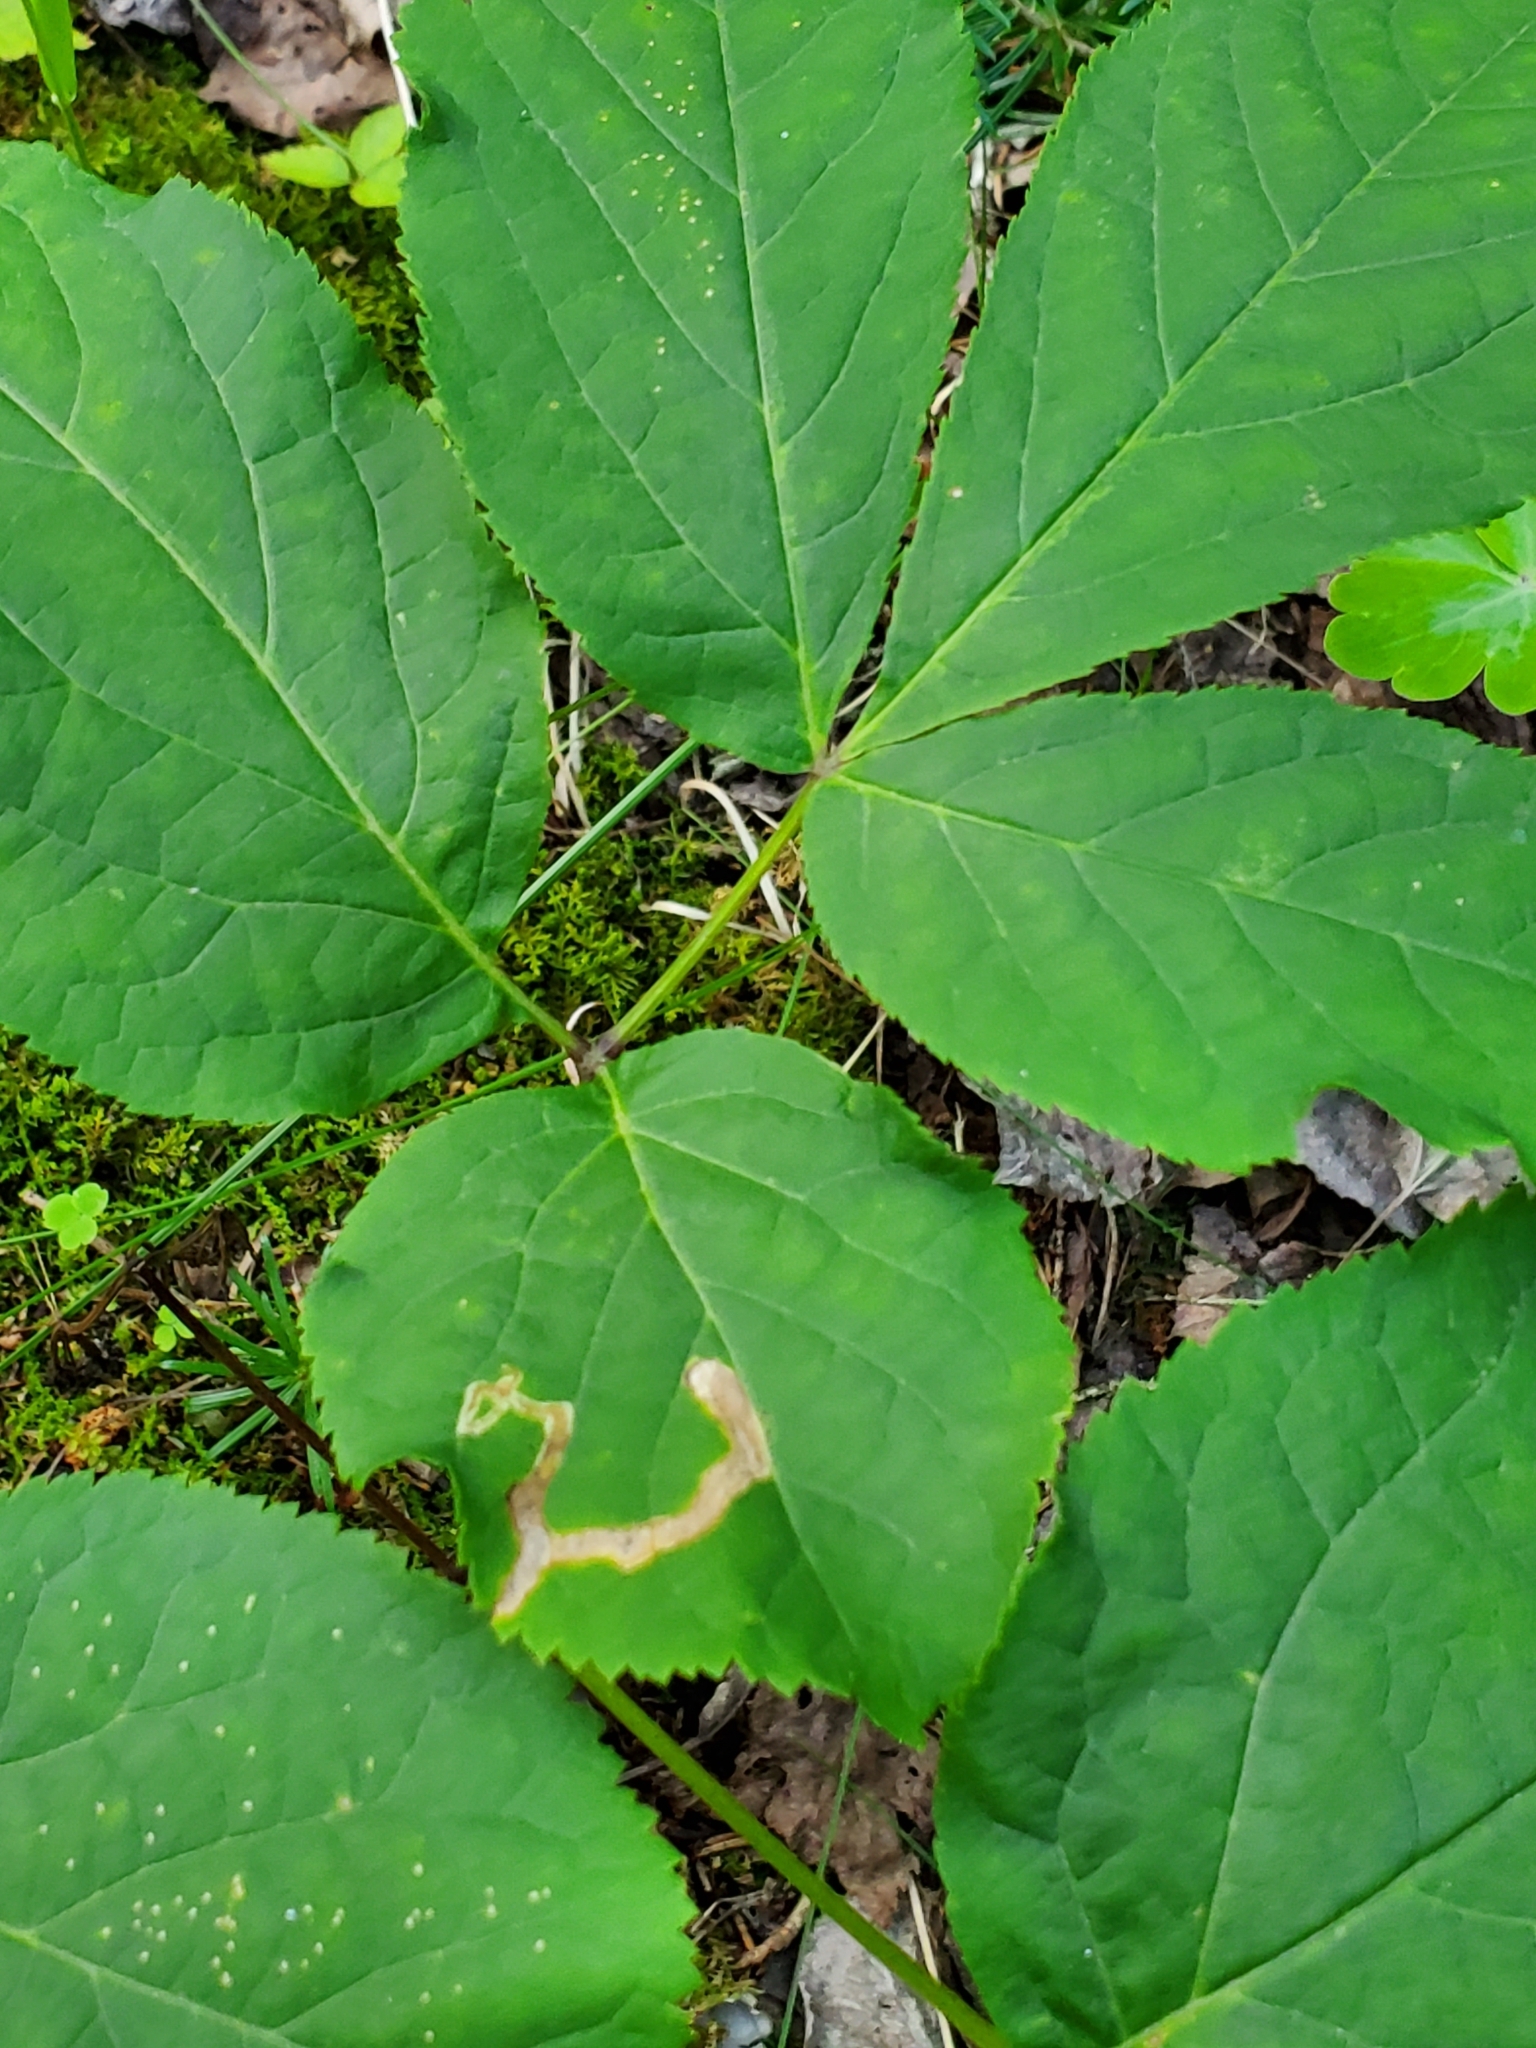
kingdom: Animalia
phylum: Arthropoda
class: Insecta
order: Diptera
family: Agromyzidae
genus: Phytomyza
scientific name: Phytomyza aralivora
